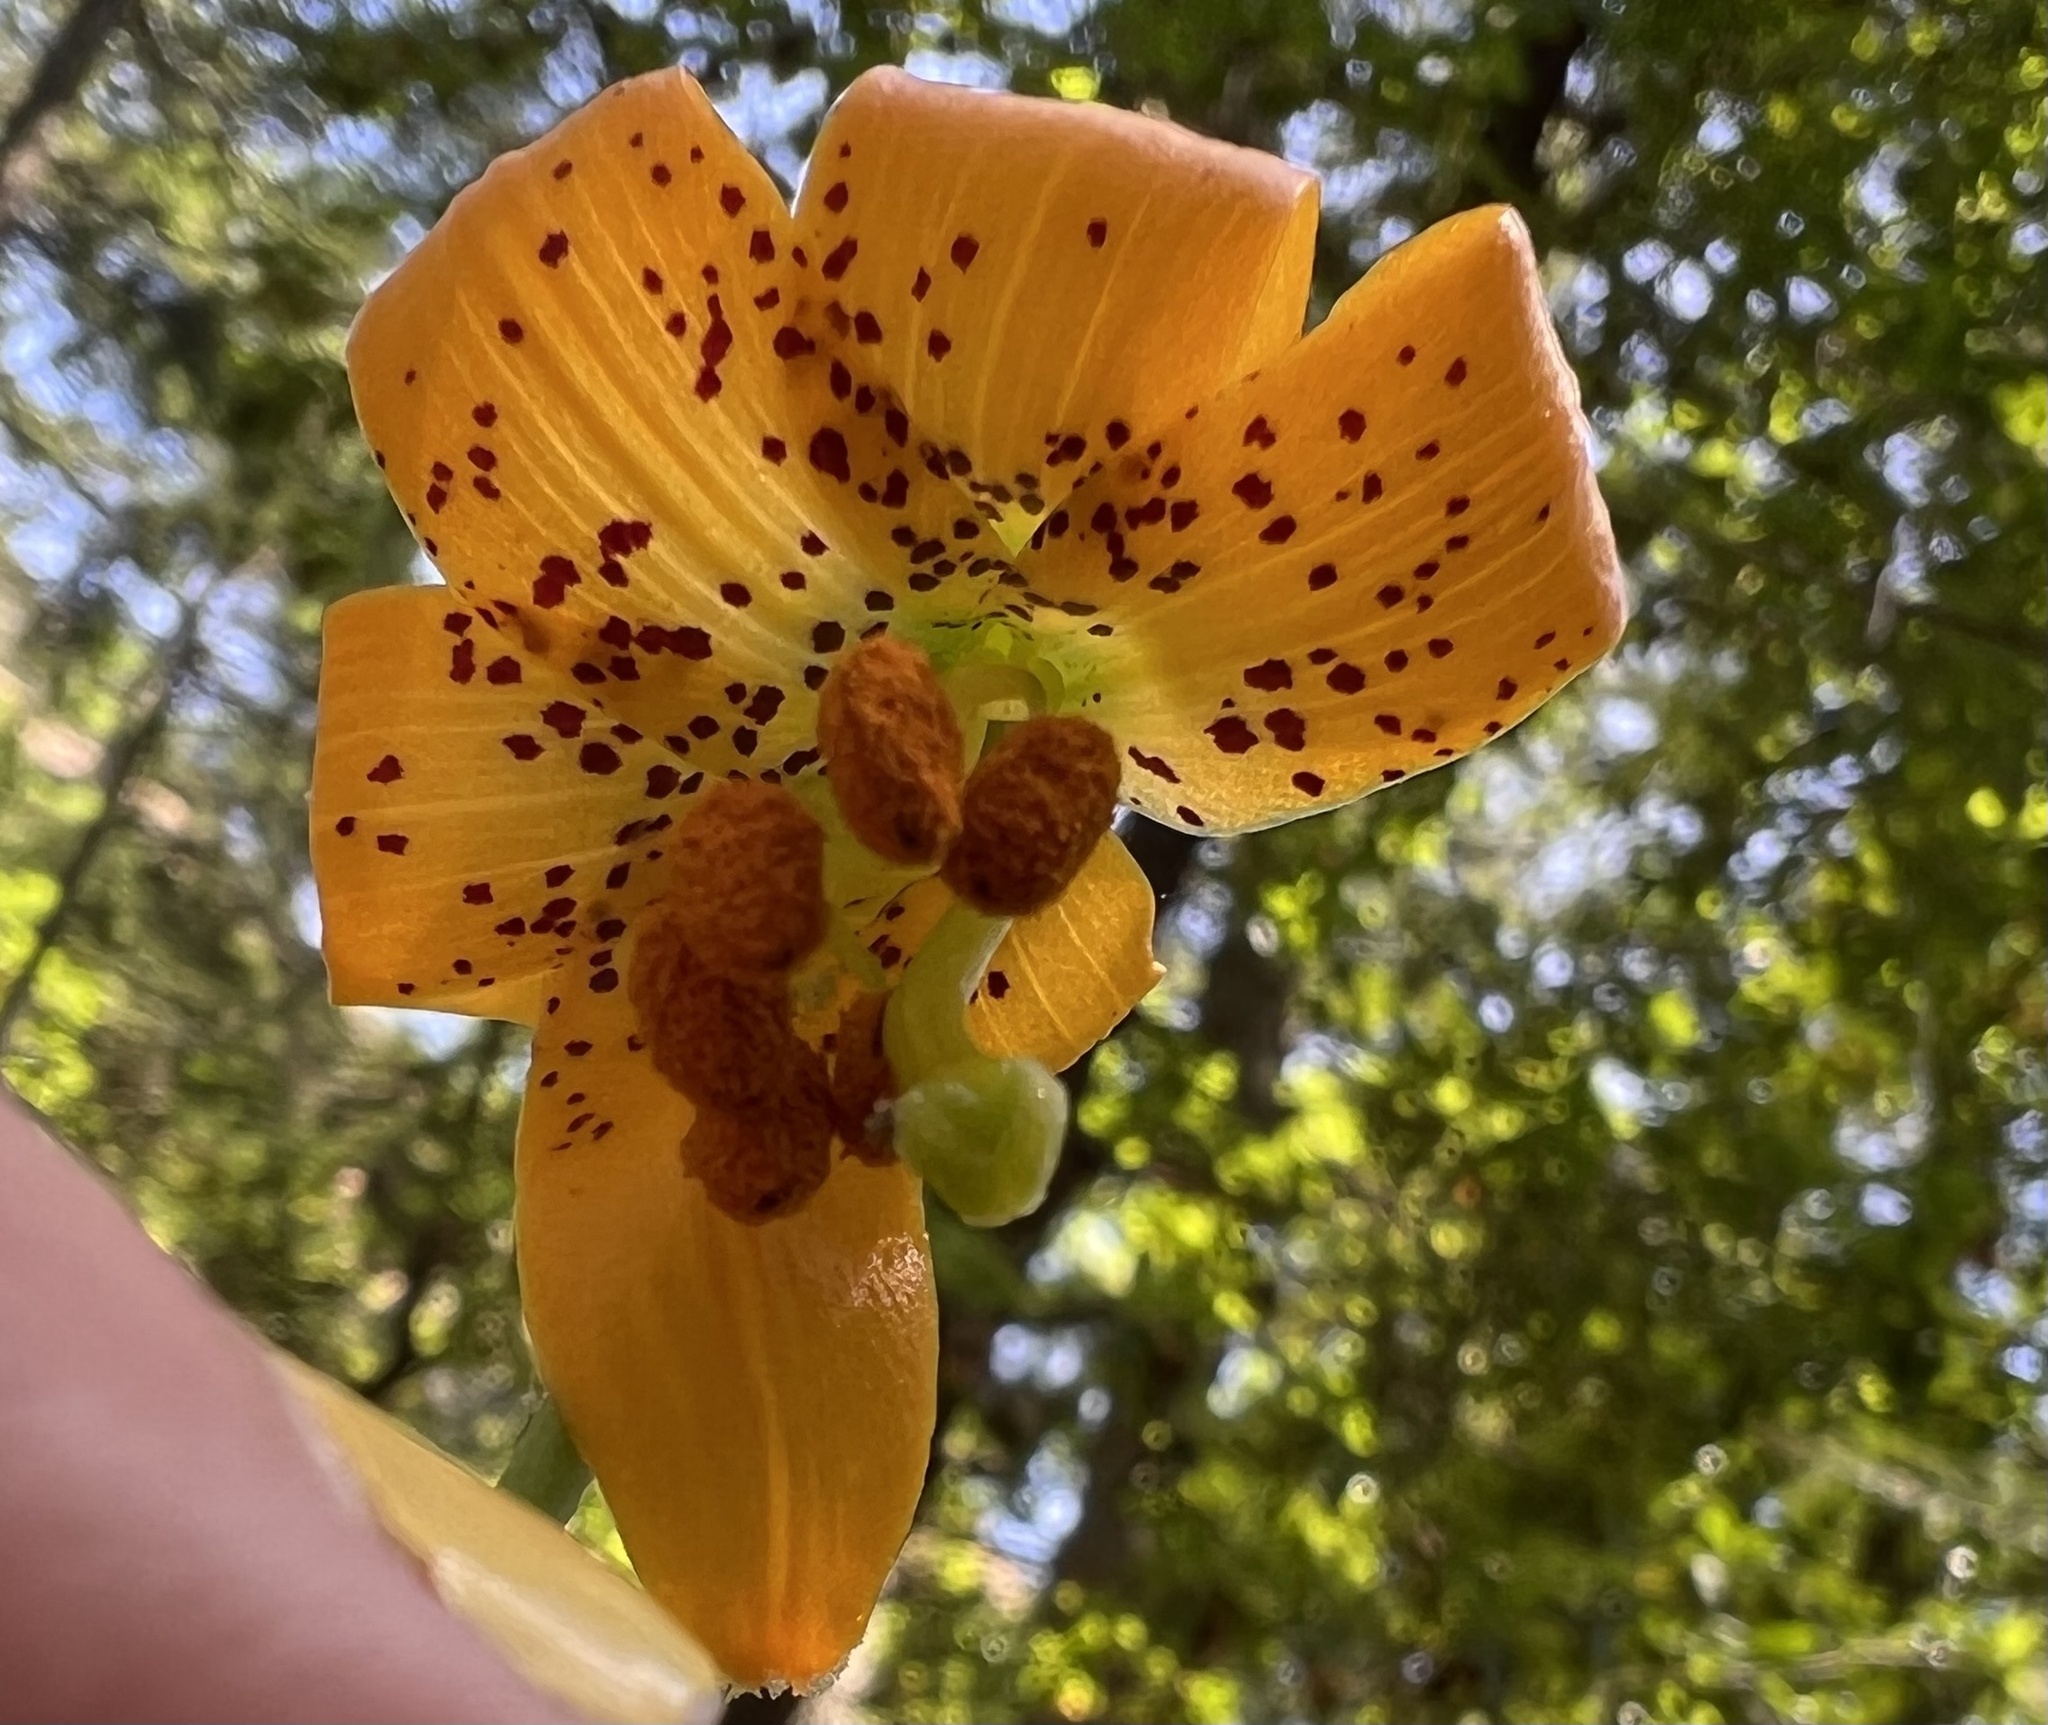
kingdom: Plantae
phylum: Tracheophyta
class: Liliopsida
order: Liliales
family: Liliaceae
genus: Lilium
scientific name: Lilium columbianum
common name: Columbia lily
